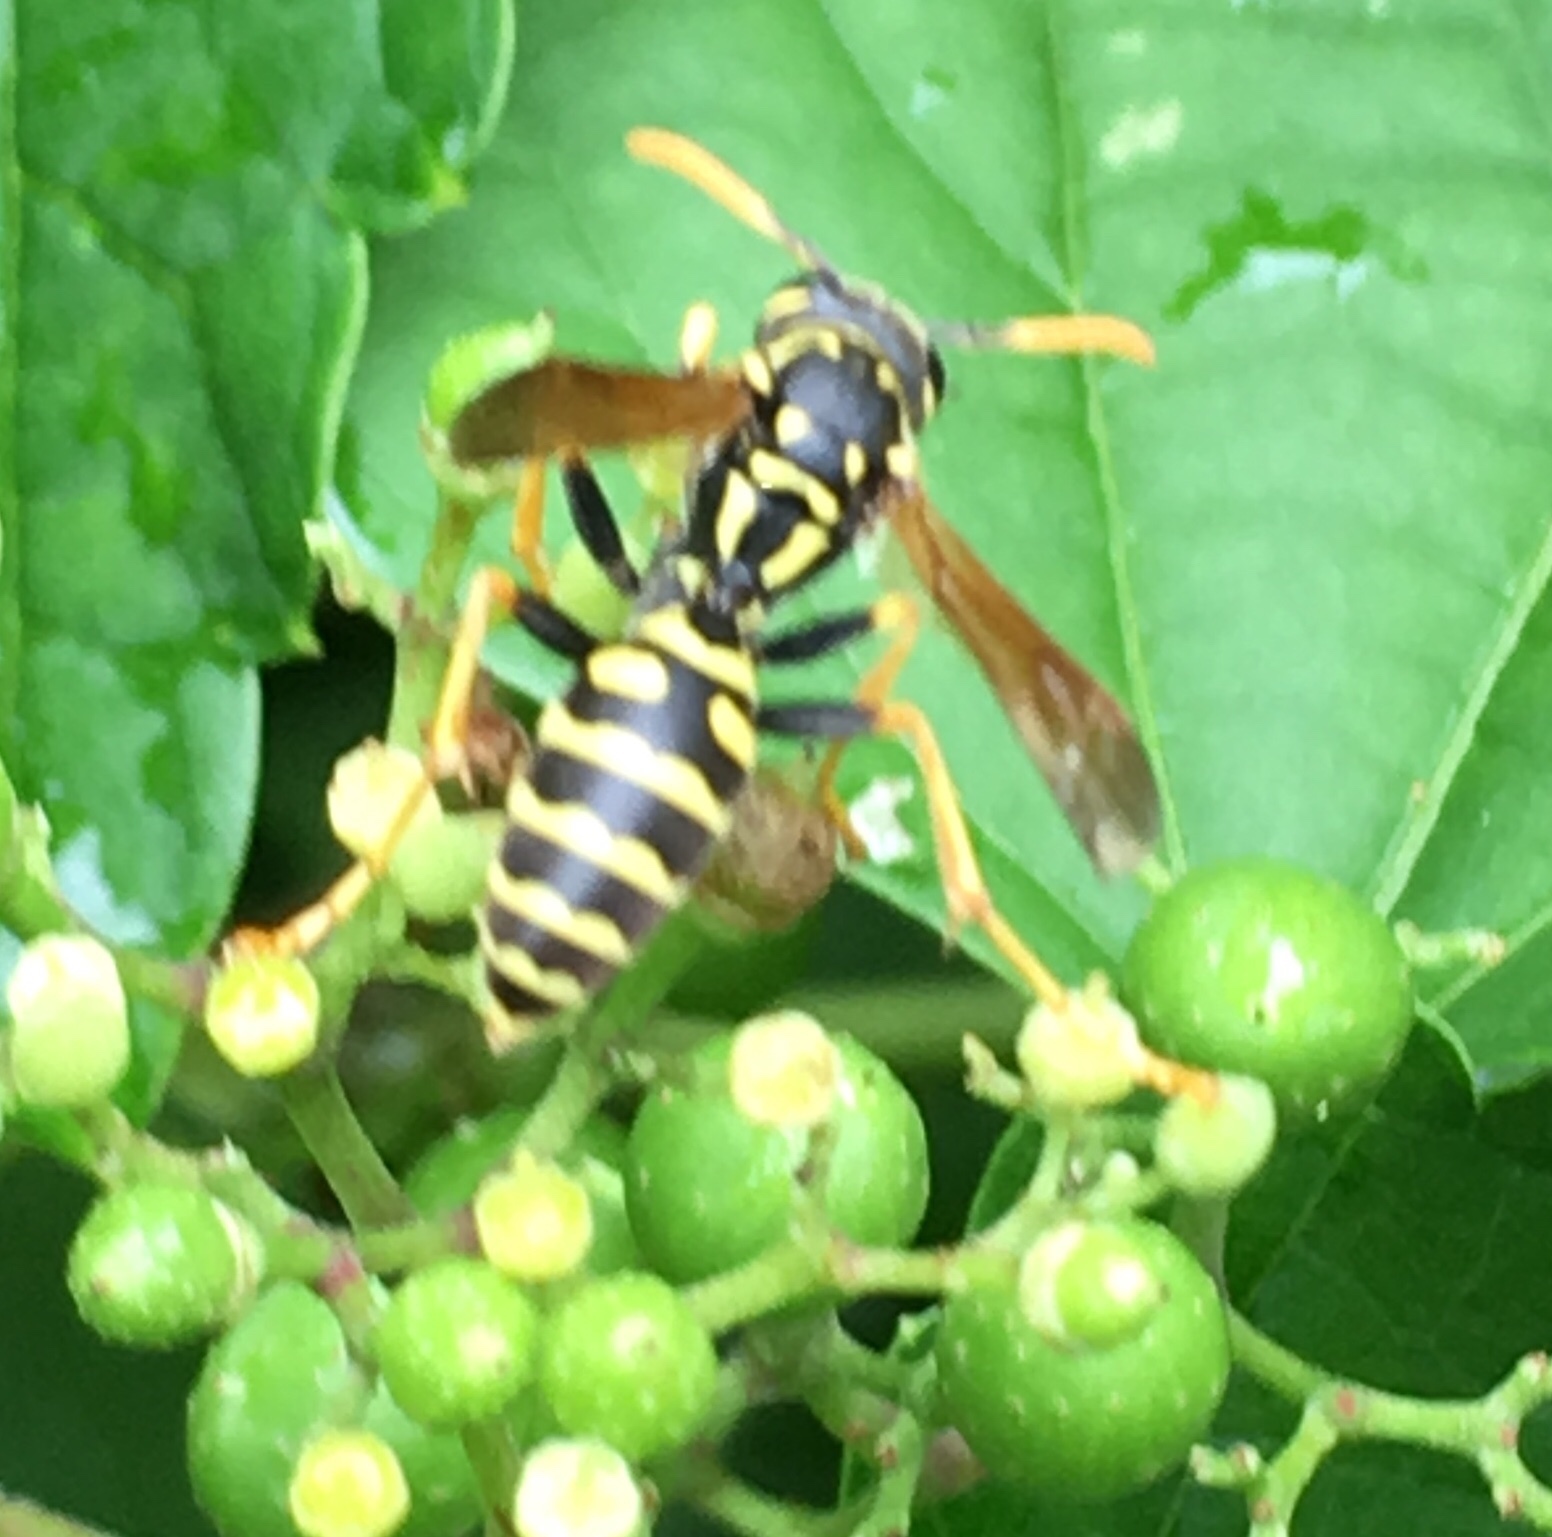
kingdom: Animalia
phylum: Arthropoda
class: Insecta
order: Hymenoptera
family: Eumenidae
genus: Polistes
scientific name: Polistes dominula
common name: Paper wasp
